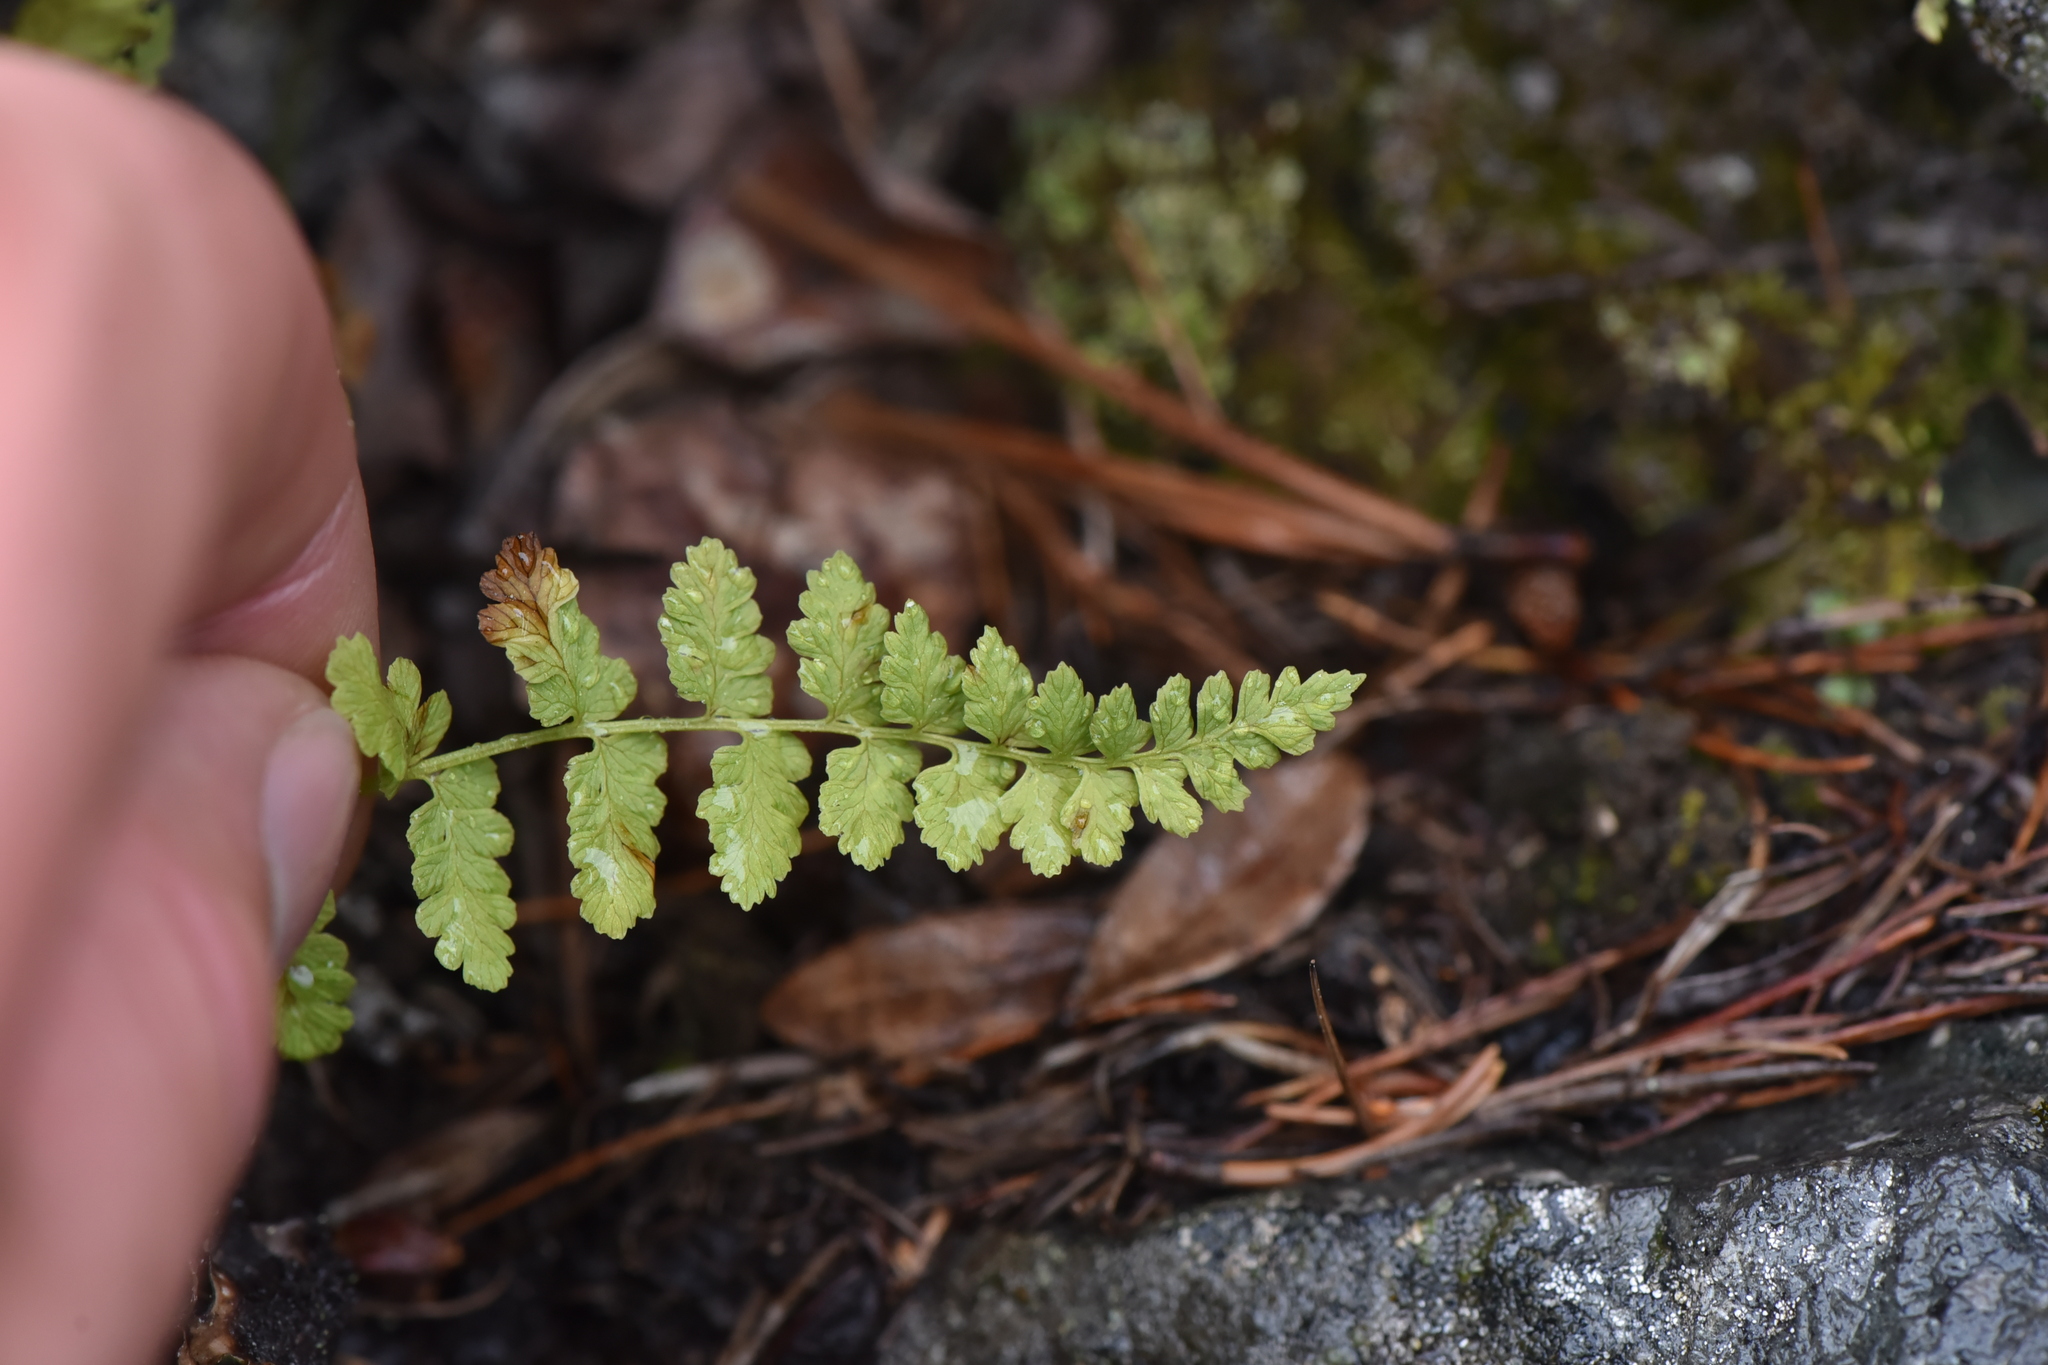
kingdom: Plantae
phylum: Tracheophyta
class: Polypodiopsida
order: Polypodiales
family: Cystopteridaceae
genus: Cystopteris
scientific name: Cystopteris fragilis
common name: Brittle bladder fern
